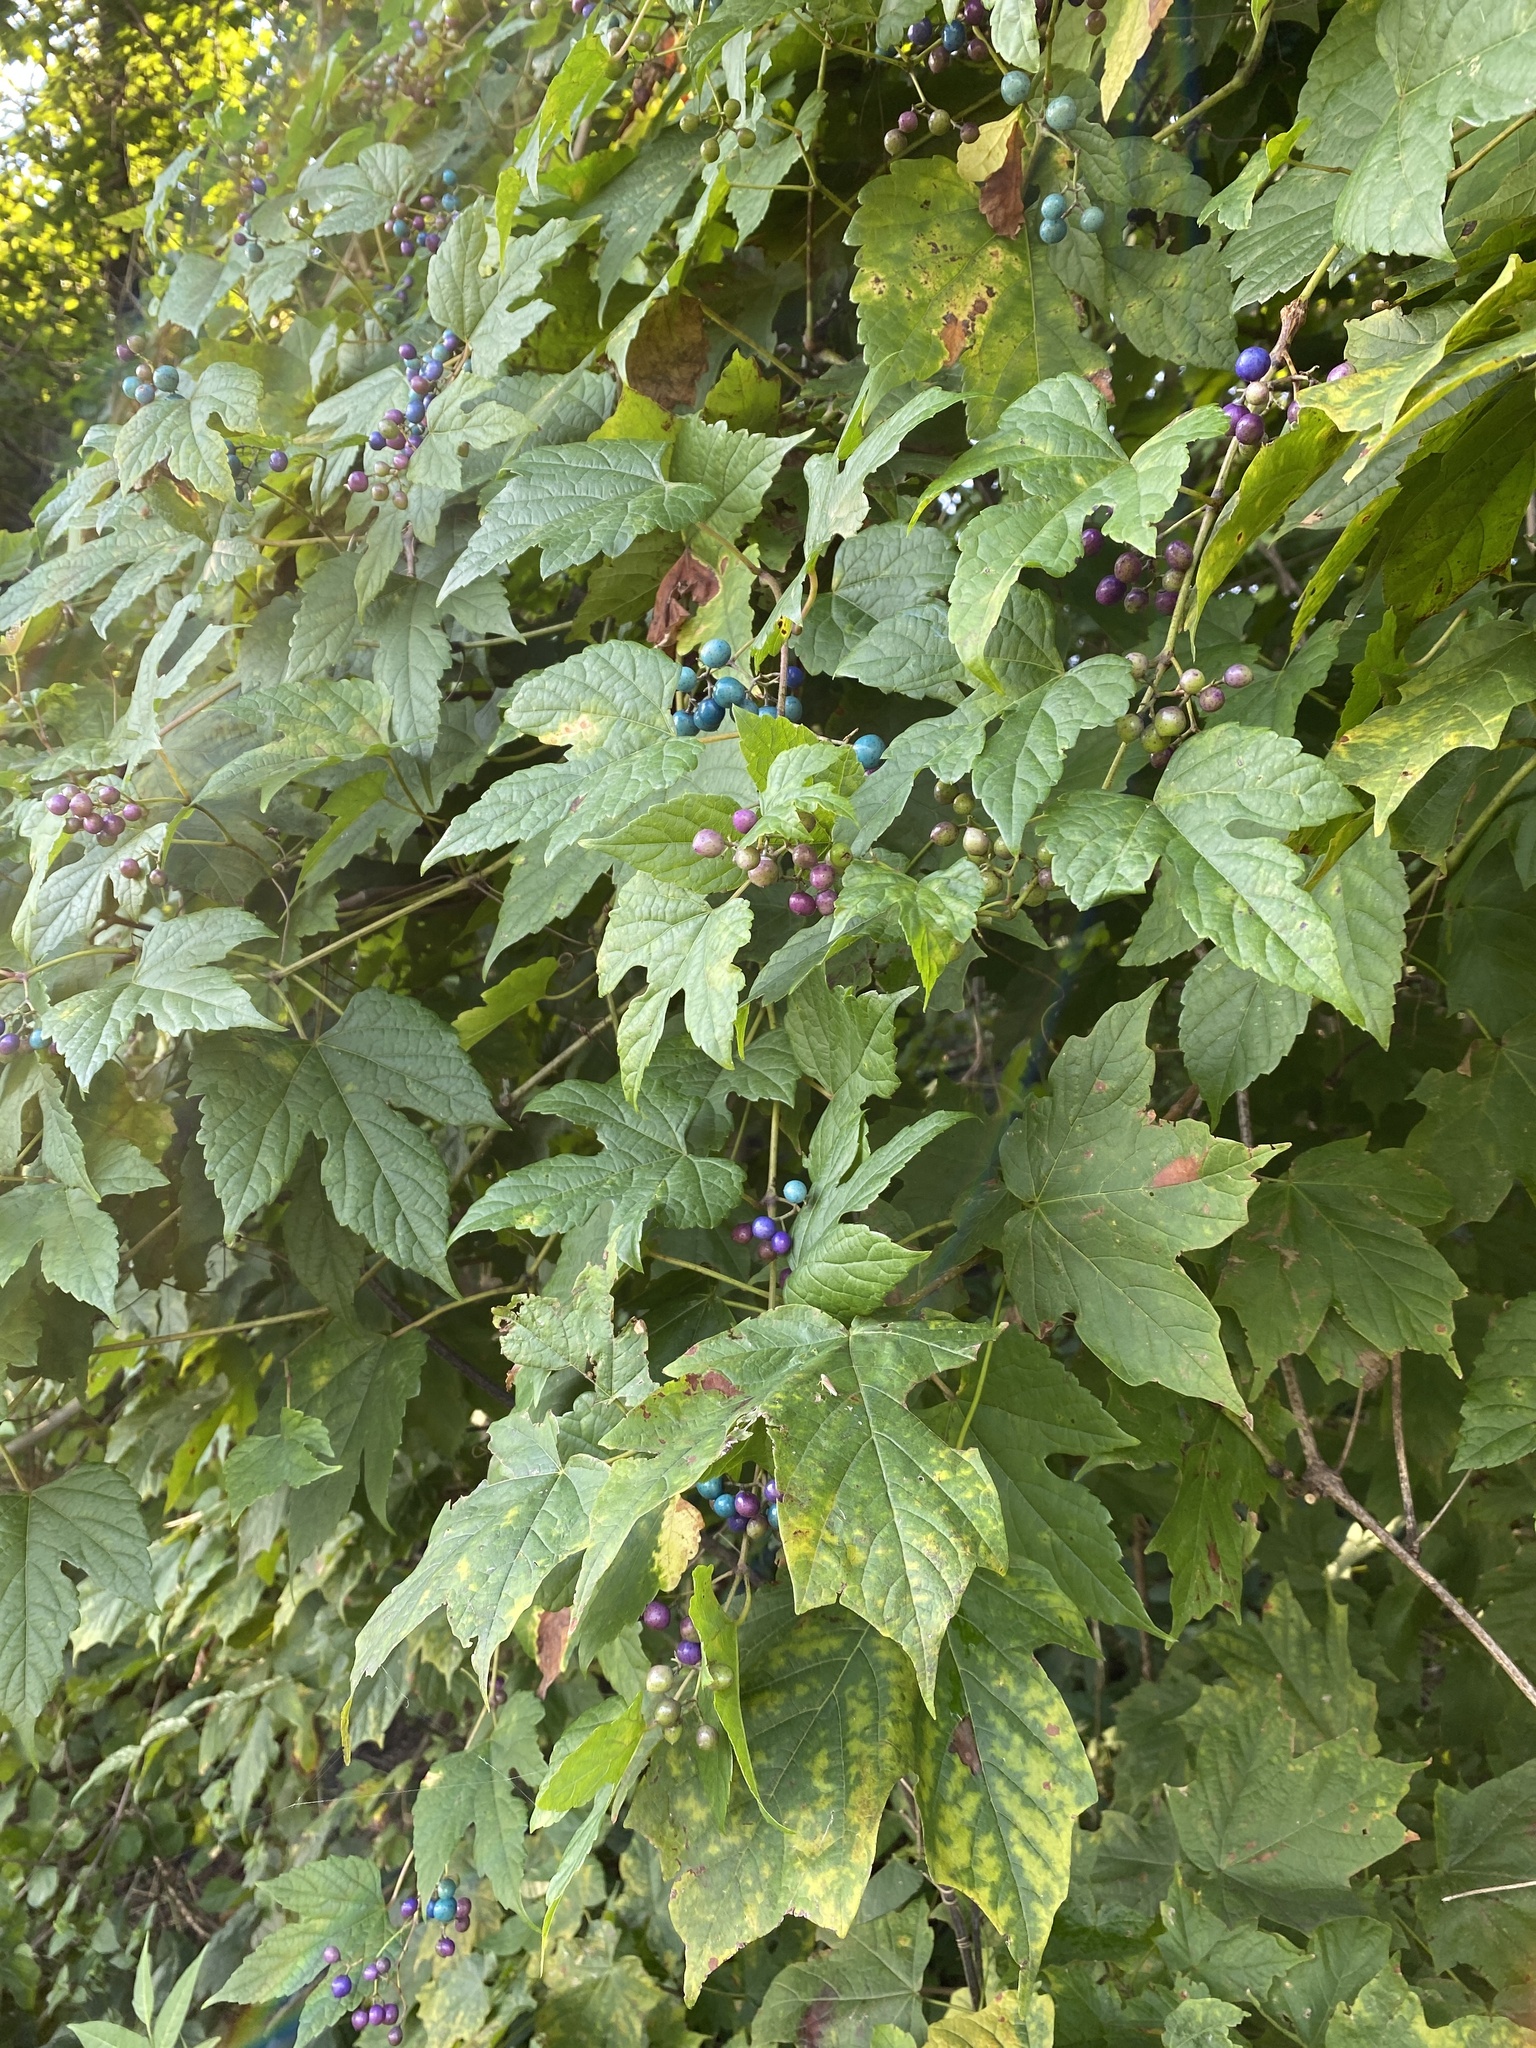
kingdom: Plantae
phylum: Tracheophyta
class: Magnoliopsida
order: Vitales
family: Vitaceae
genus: Ampelopsis
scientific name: Ampelopsis glandulosa
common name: Amur peppervine
